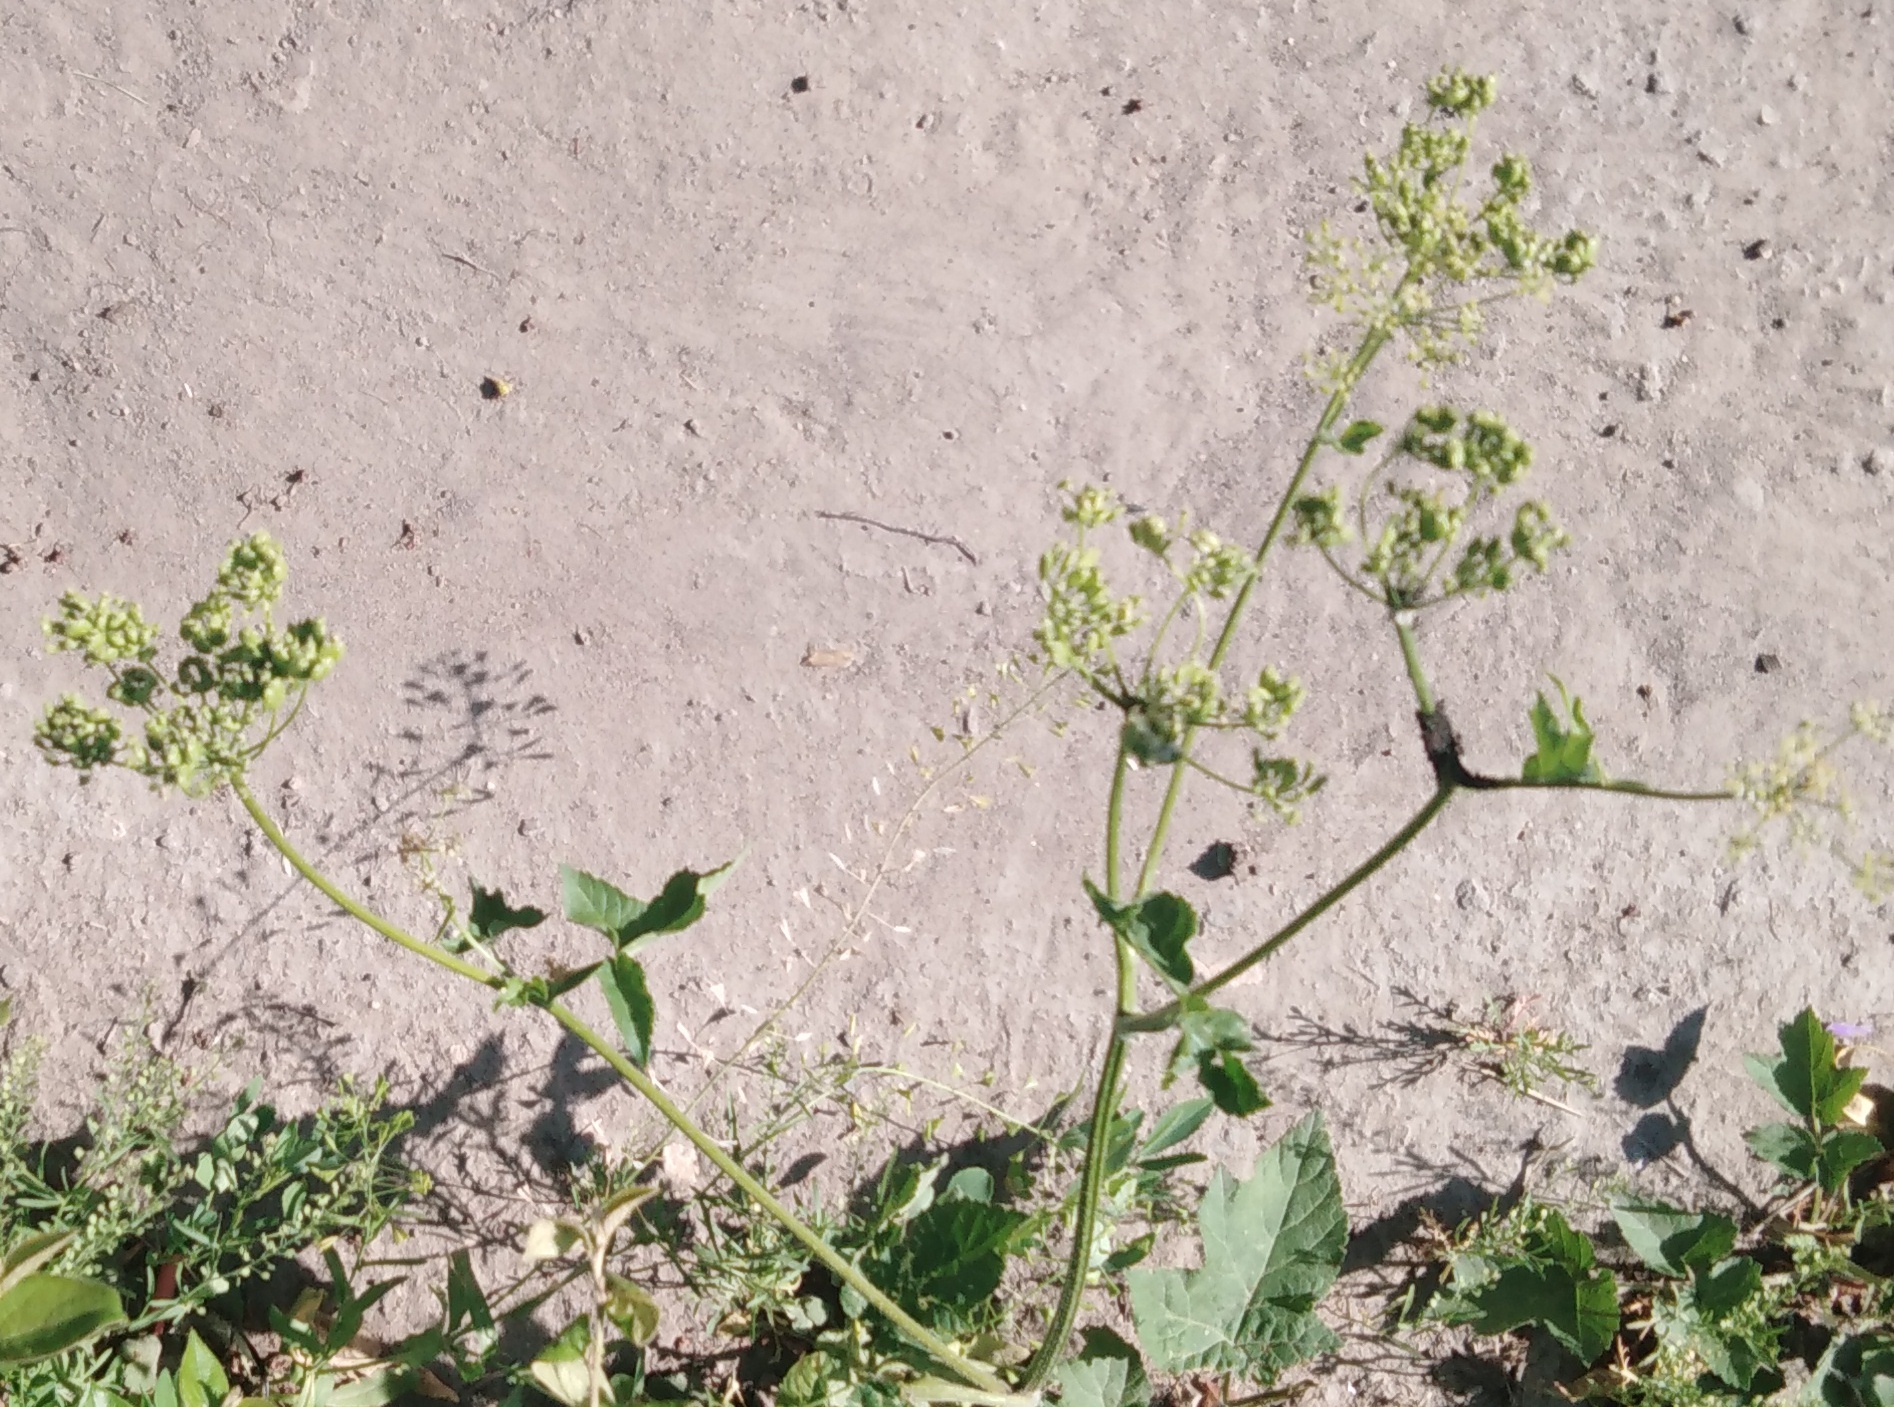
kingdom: Plantae
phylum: Tracheophyta
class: Magnoliopsida
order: Apiales
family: Apiaceae
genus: Pastinaca
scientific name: Pastinaca sativa
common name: Wild parsnip
